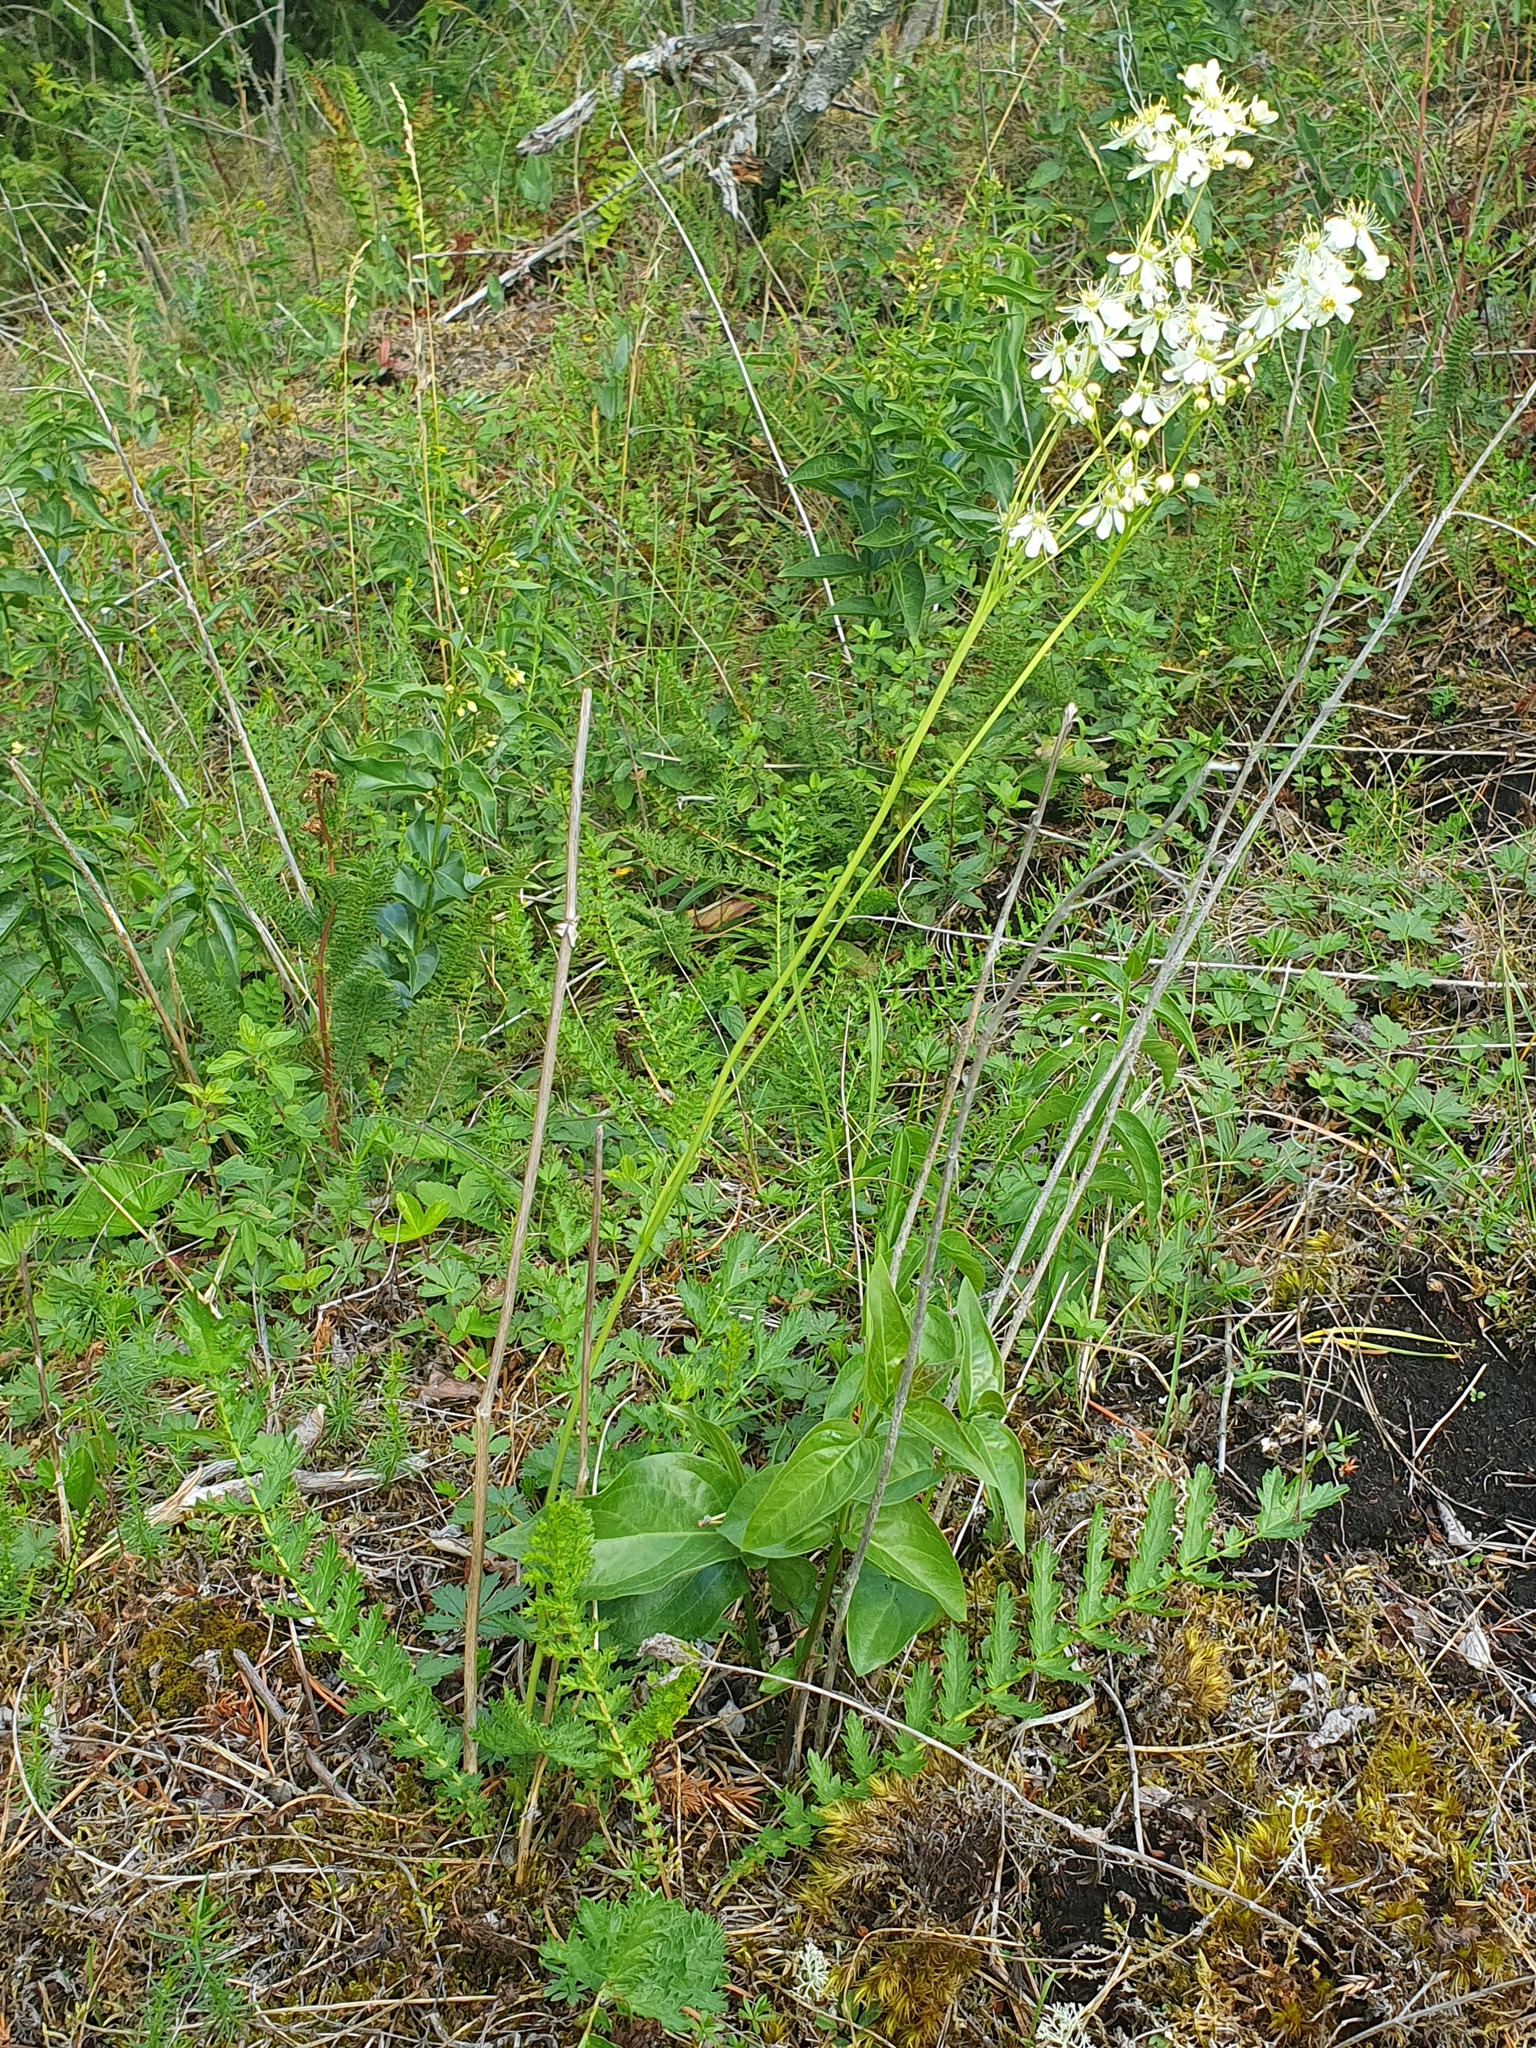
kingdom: Plantae
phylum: Tracheophyta
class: Magnoliopsida
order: Rosales
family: Rosaceae
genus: Filipendula
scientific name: Filipendula vulgaris
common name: Dropwort
